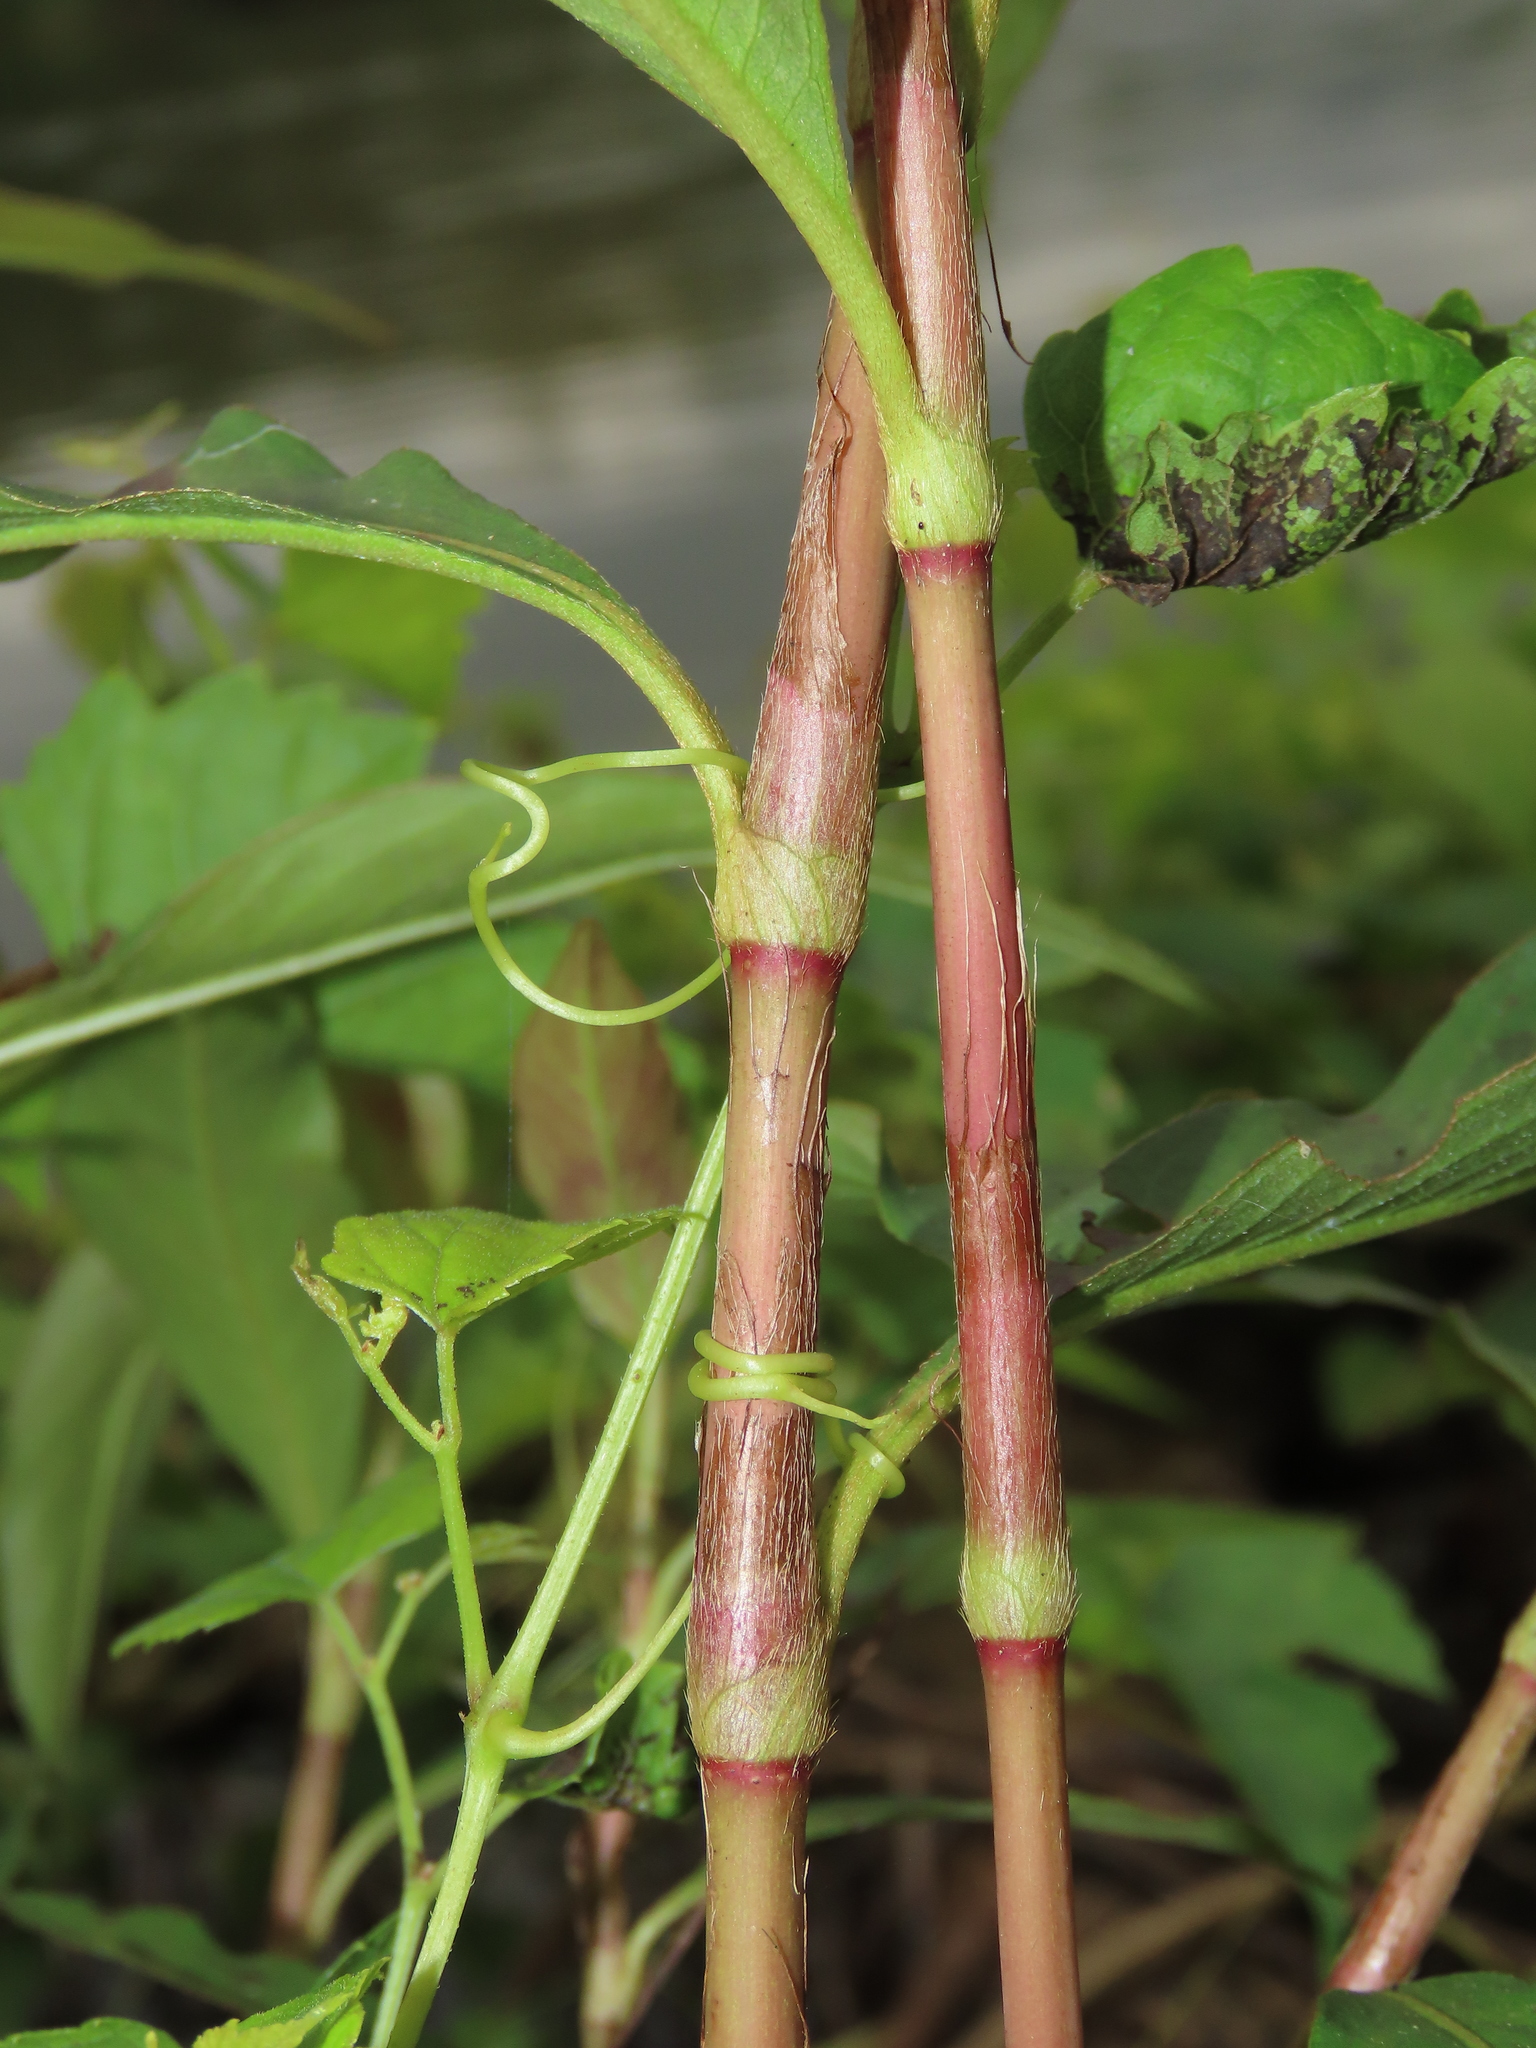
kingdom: Plantae
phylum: Tracheophyta
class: Magnoliopsida
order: Caryophyllales
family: Polygonaceae
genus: Persicaria
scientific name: Persicaria barbata
